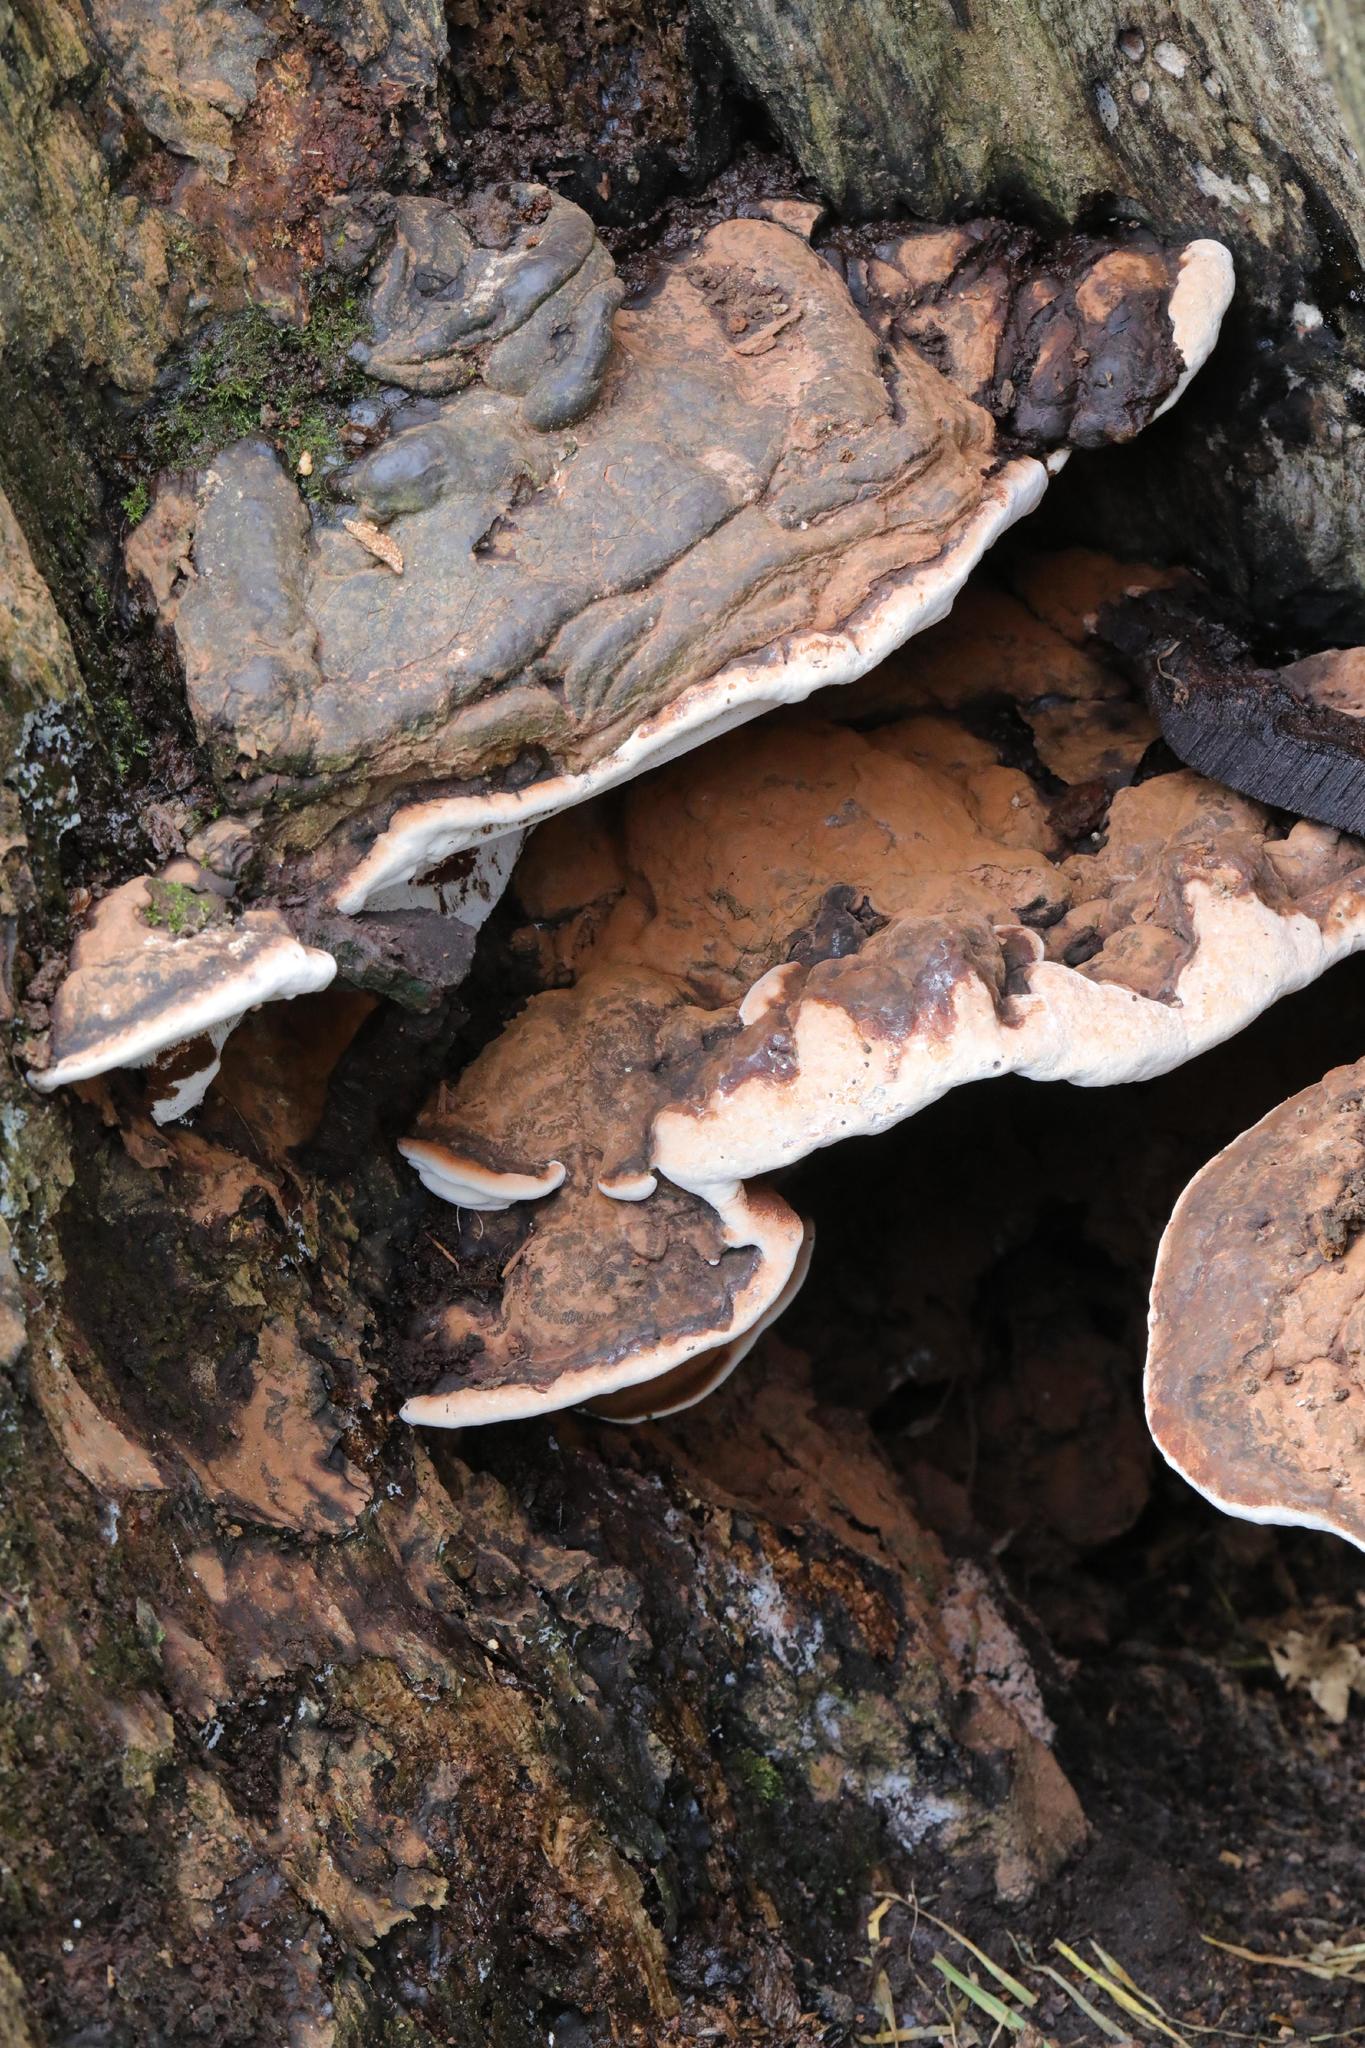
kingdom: Fungi
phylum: Basidiomycota
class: Agaricomycetes
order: Polyporales
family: Polyporaceae
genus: Ganoderma
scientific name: Ganoderma applanatum
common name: Artist's bracket
